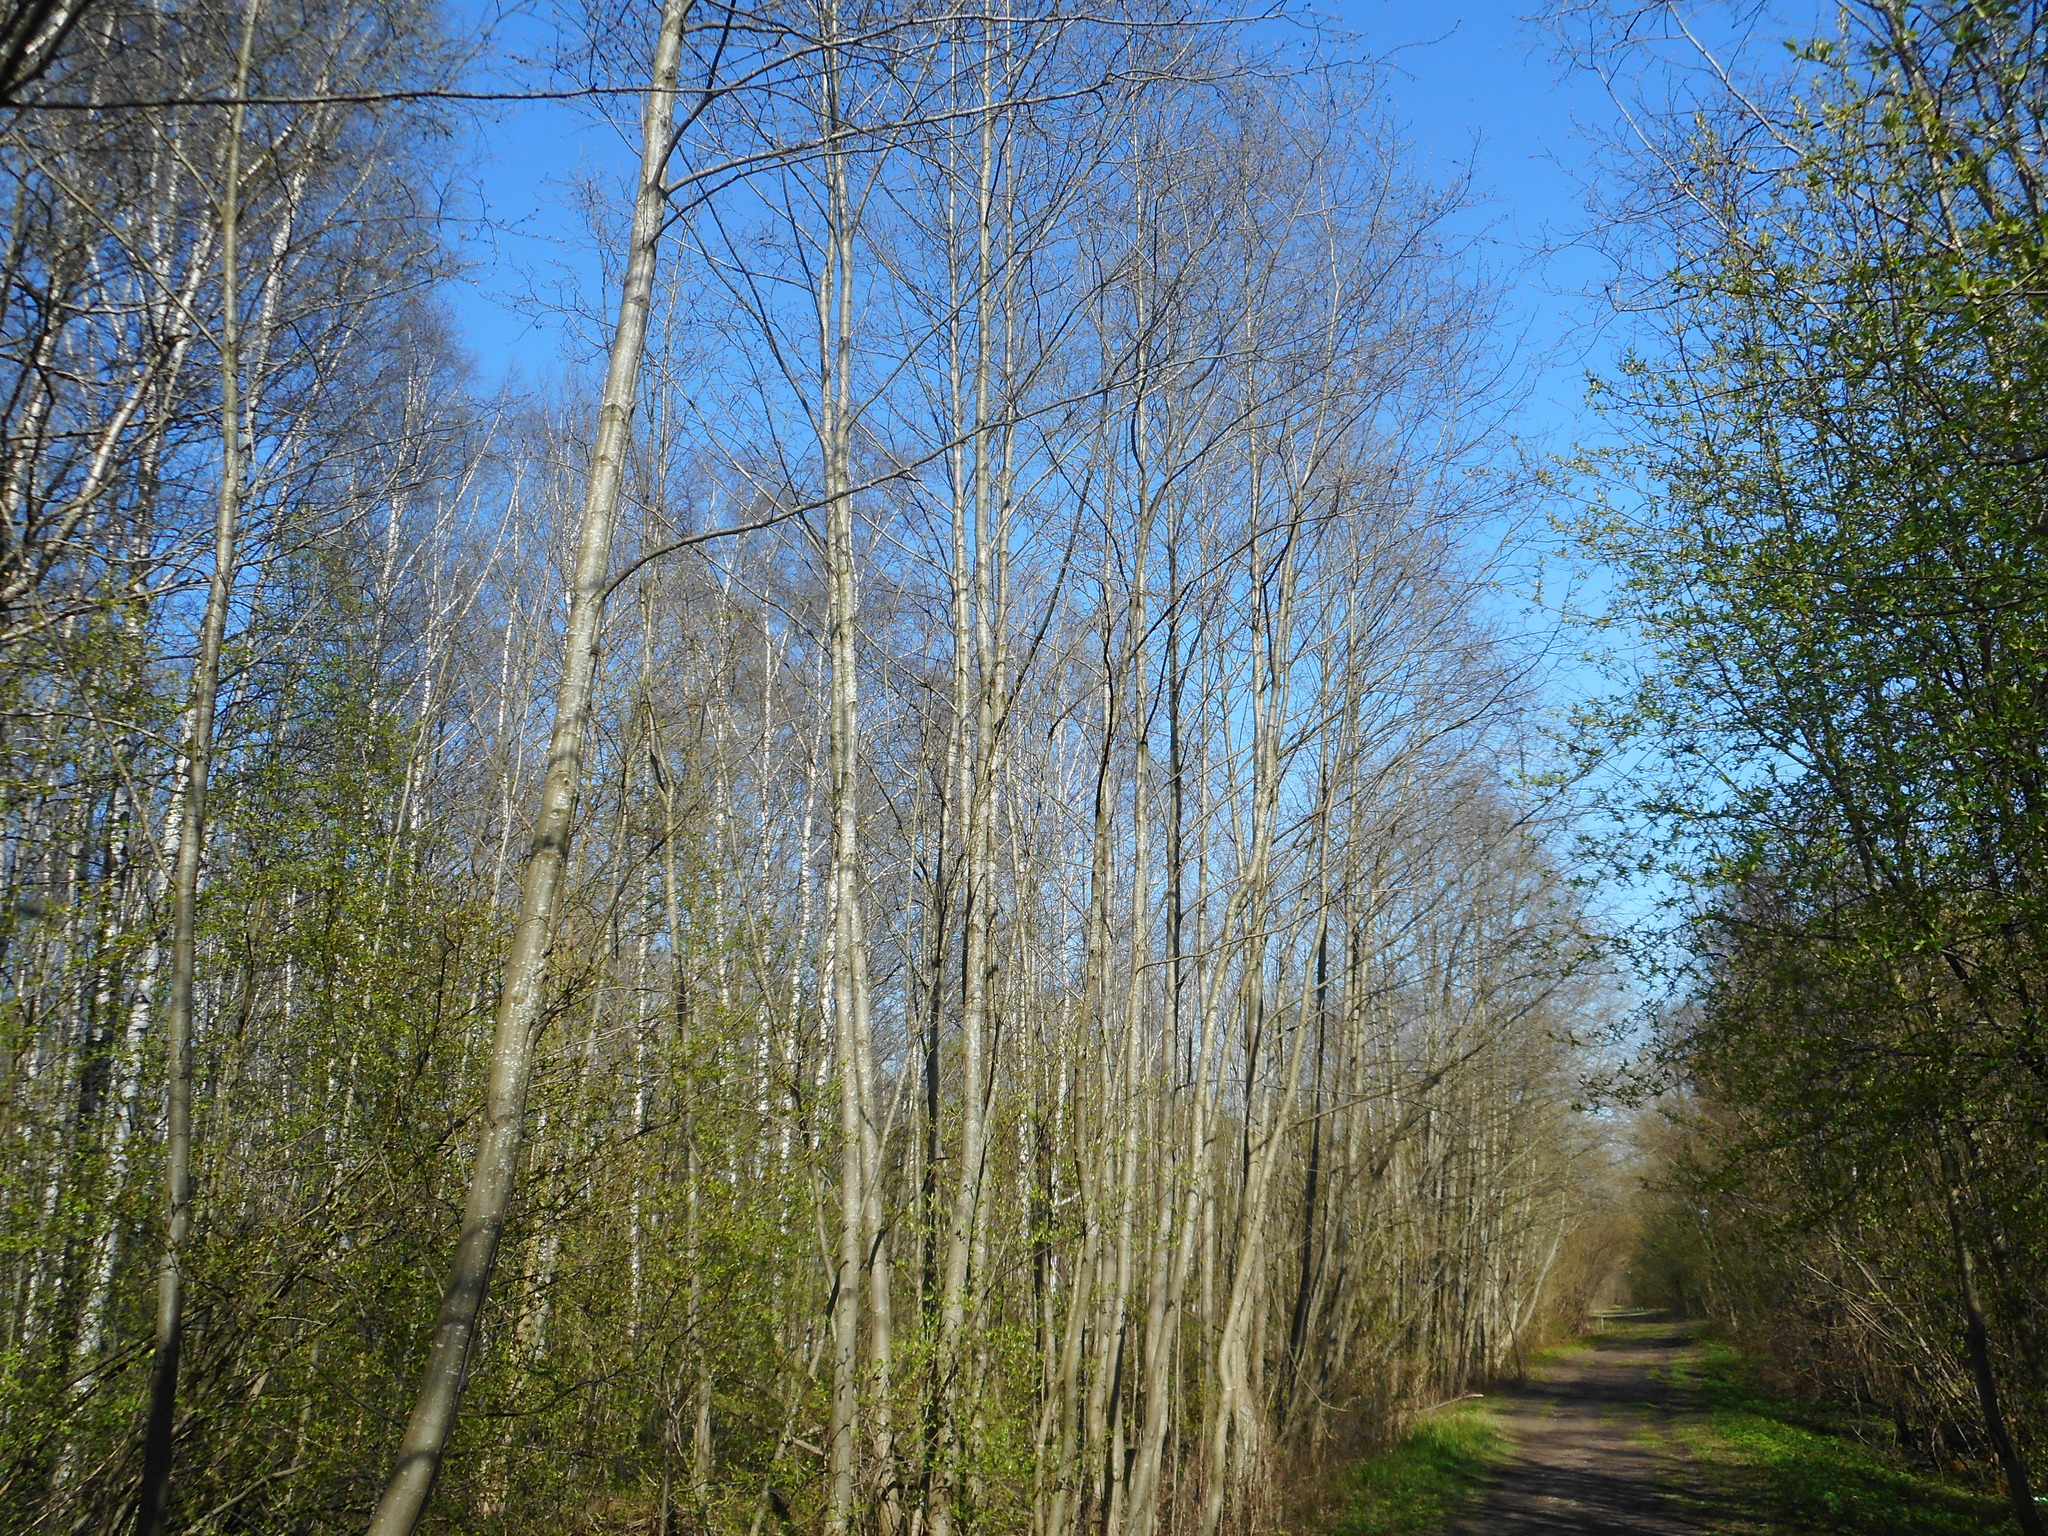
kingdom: Plantae
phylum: Tracheophyta
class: Magnoliopsida
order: Fagales
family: Betulaceae
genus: Alnus
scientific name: Alnus incana
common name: Grey alder
